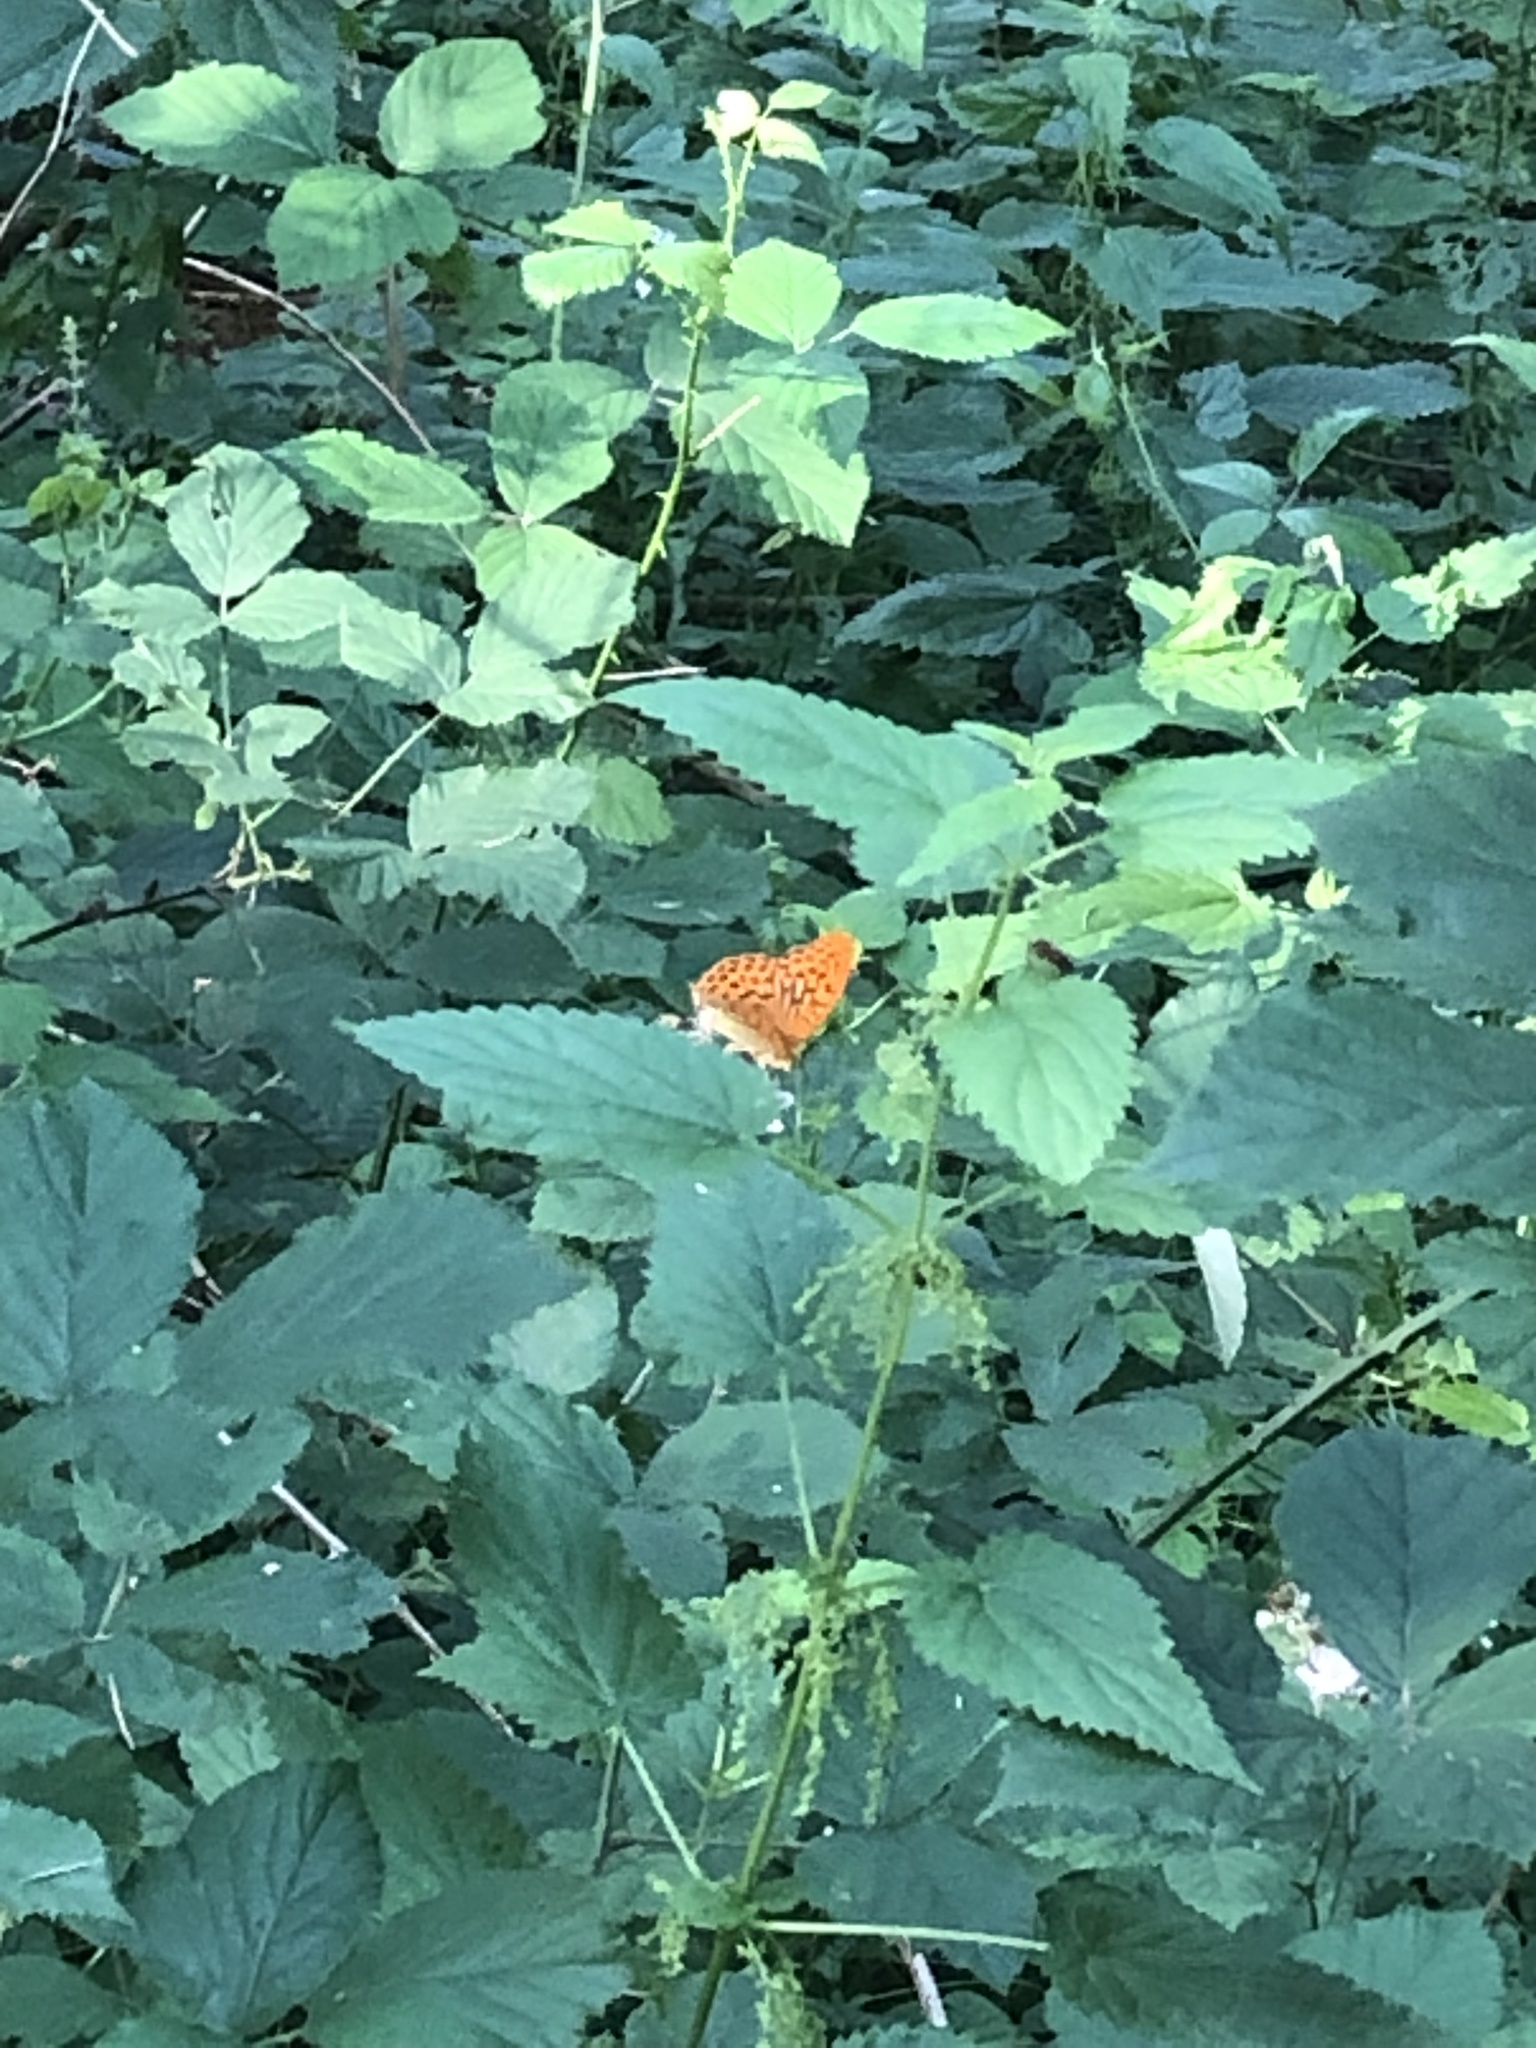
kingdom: Animalia
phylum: Arthropoda
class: Insecta
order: Lepidoptera
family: Nymphalidae
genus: Argynnis
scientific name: Argynnis paphia
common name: Silver-washed fritillary
